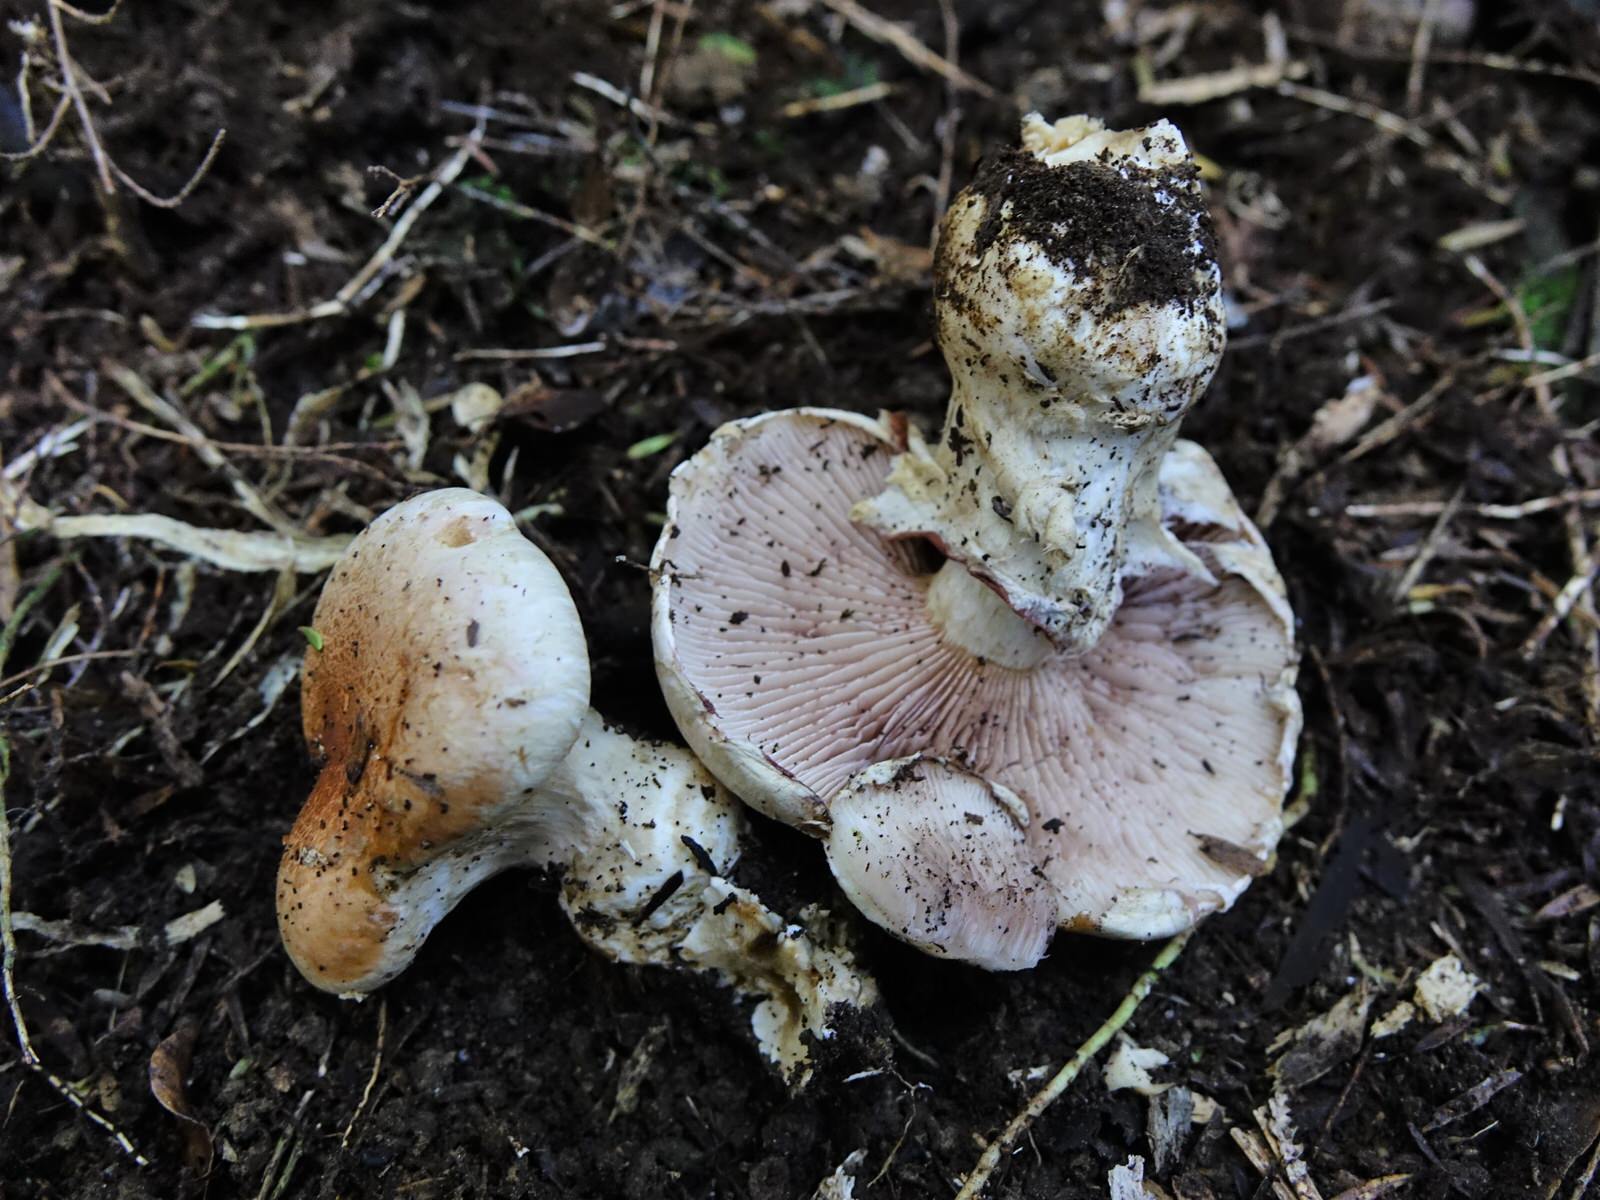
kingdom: Fungi
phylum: Basidiomycota
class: Agaricomycetes
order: Agaricales
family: Hymenogastraceae
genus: Hebeloma
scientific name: Hebeloma victoriense
